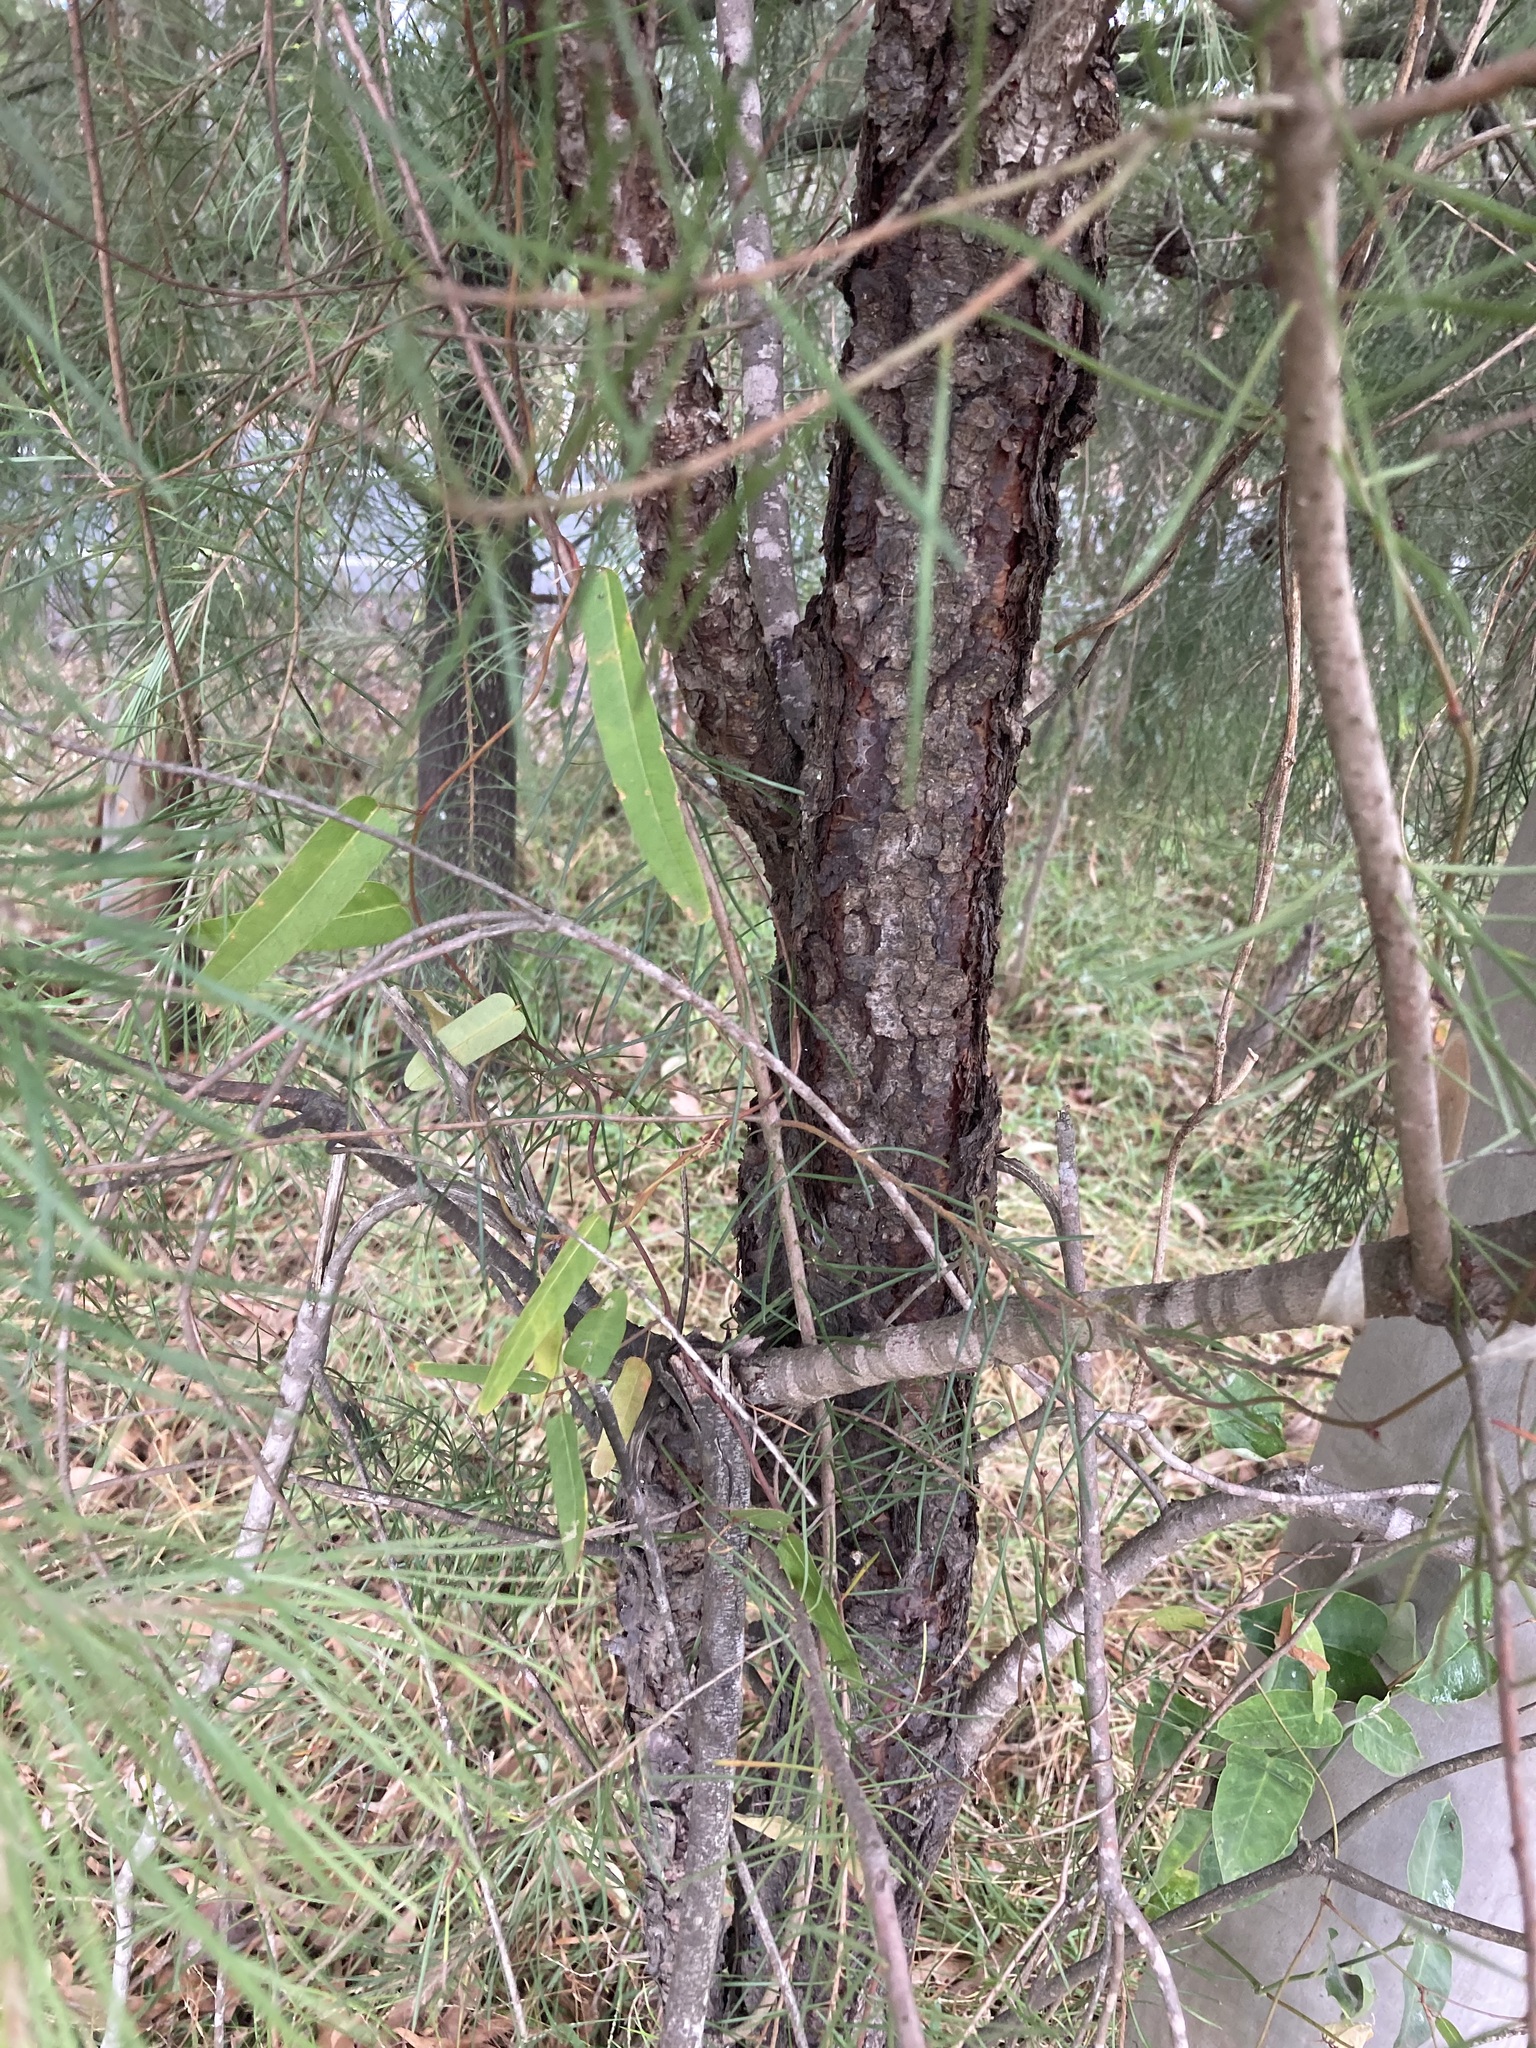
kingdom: Plantae
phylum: Tracheophyta
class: Magnoliopsida
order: Proteales
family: Proteaceae
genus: Persoonia
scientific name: Persoonia linearis
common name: Narrow-leaf geebung
